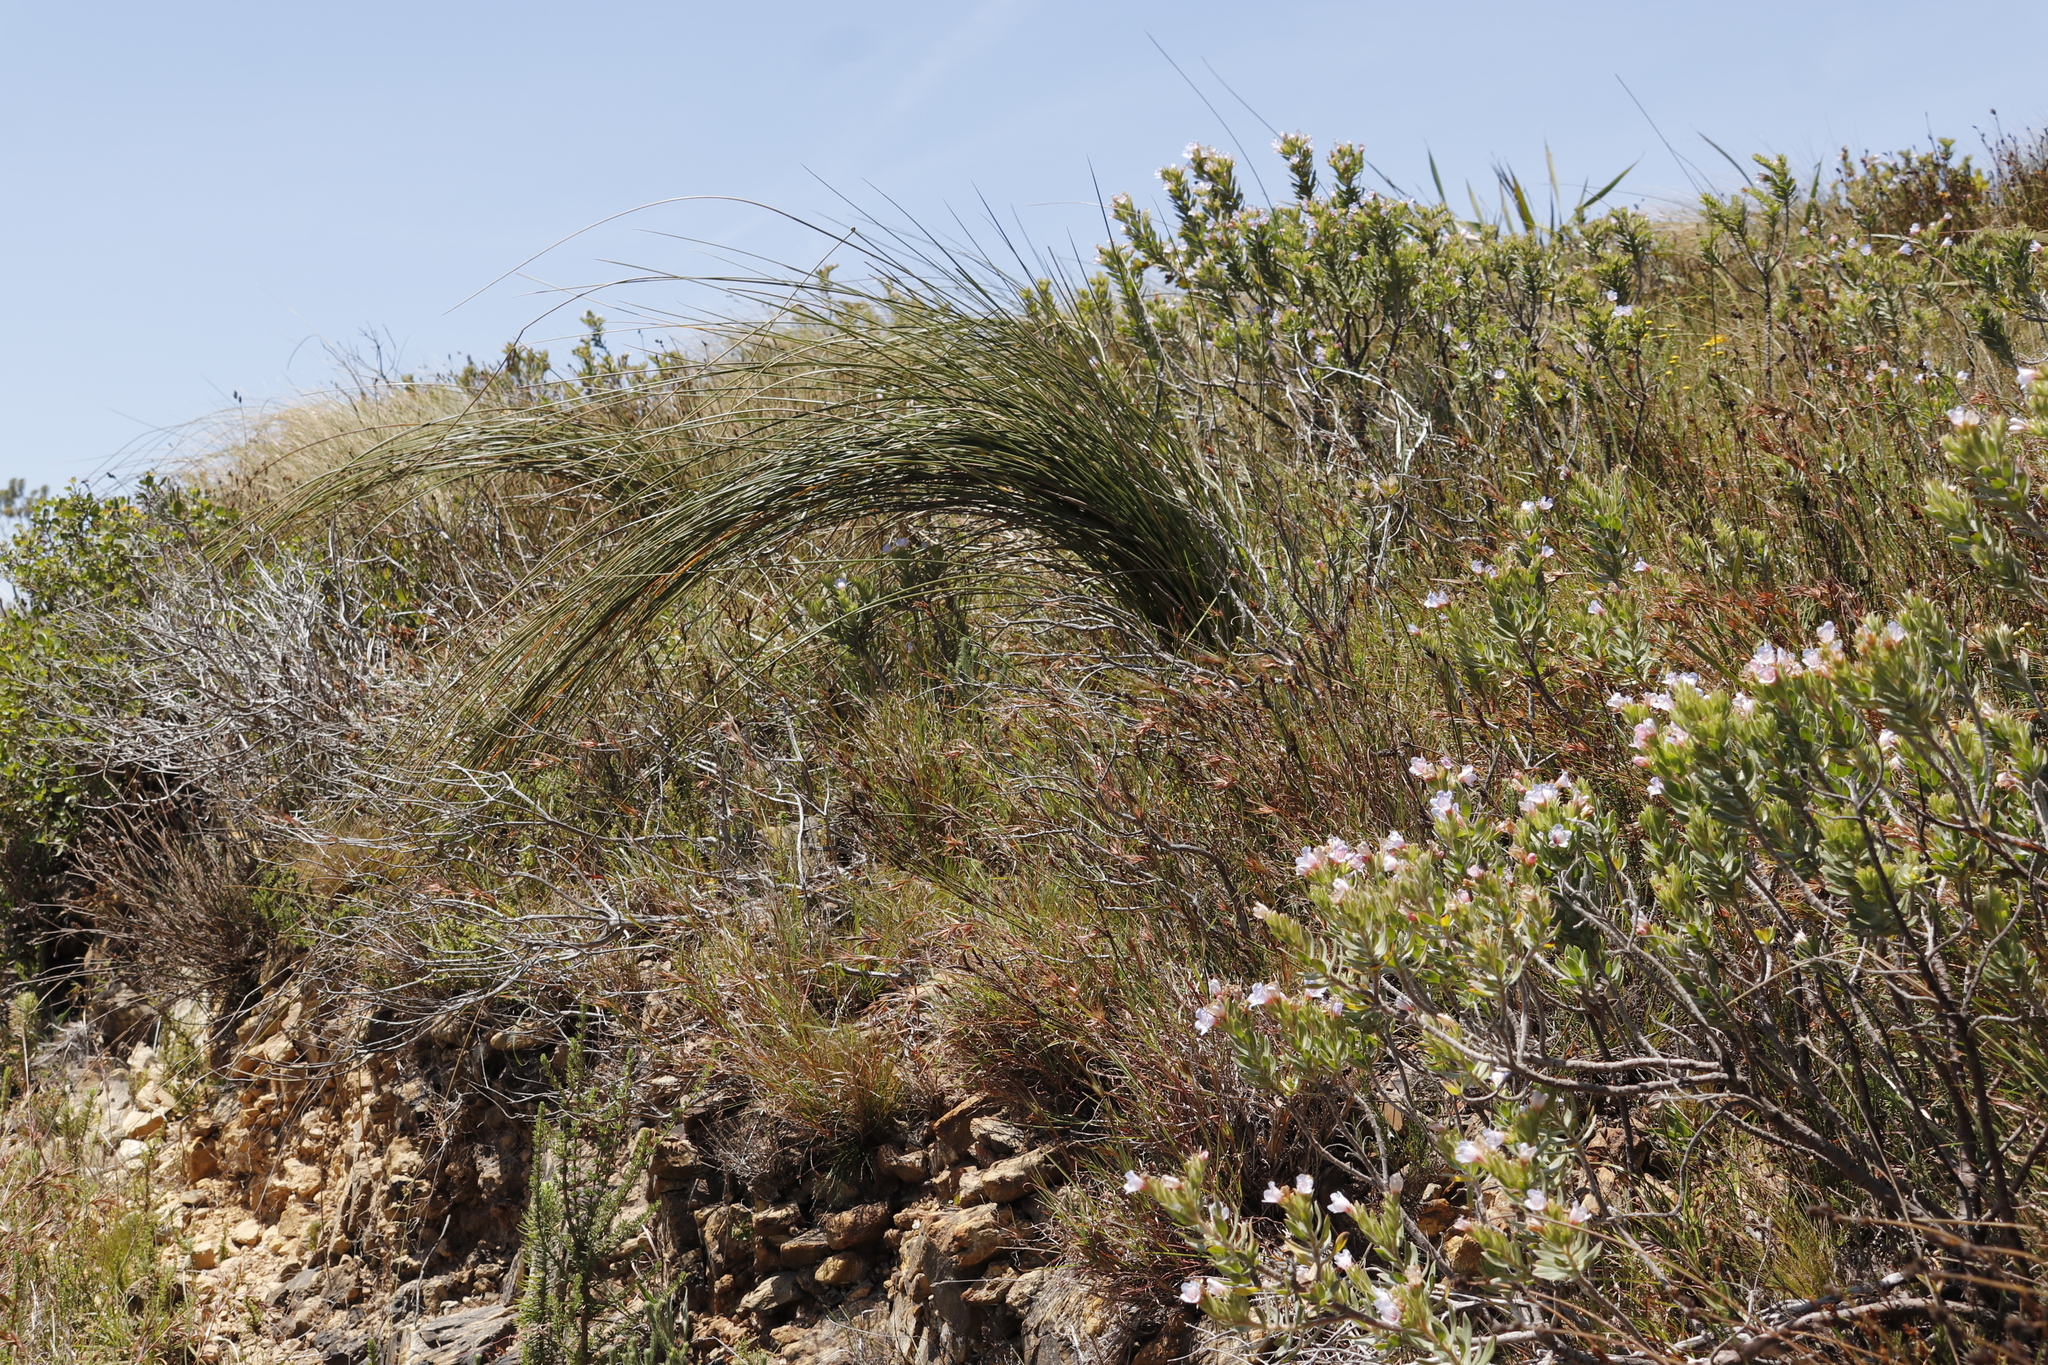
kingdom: Plantae
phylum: Tracheophyta
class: Liliopsida
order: Asparagales
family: Iridaceae
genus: Bobartia
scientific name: Bobartia indica
